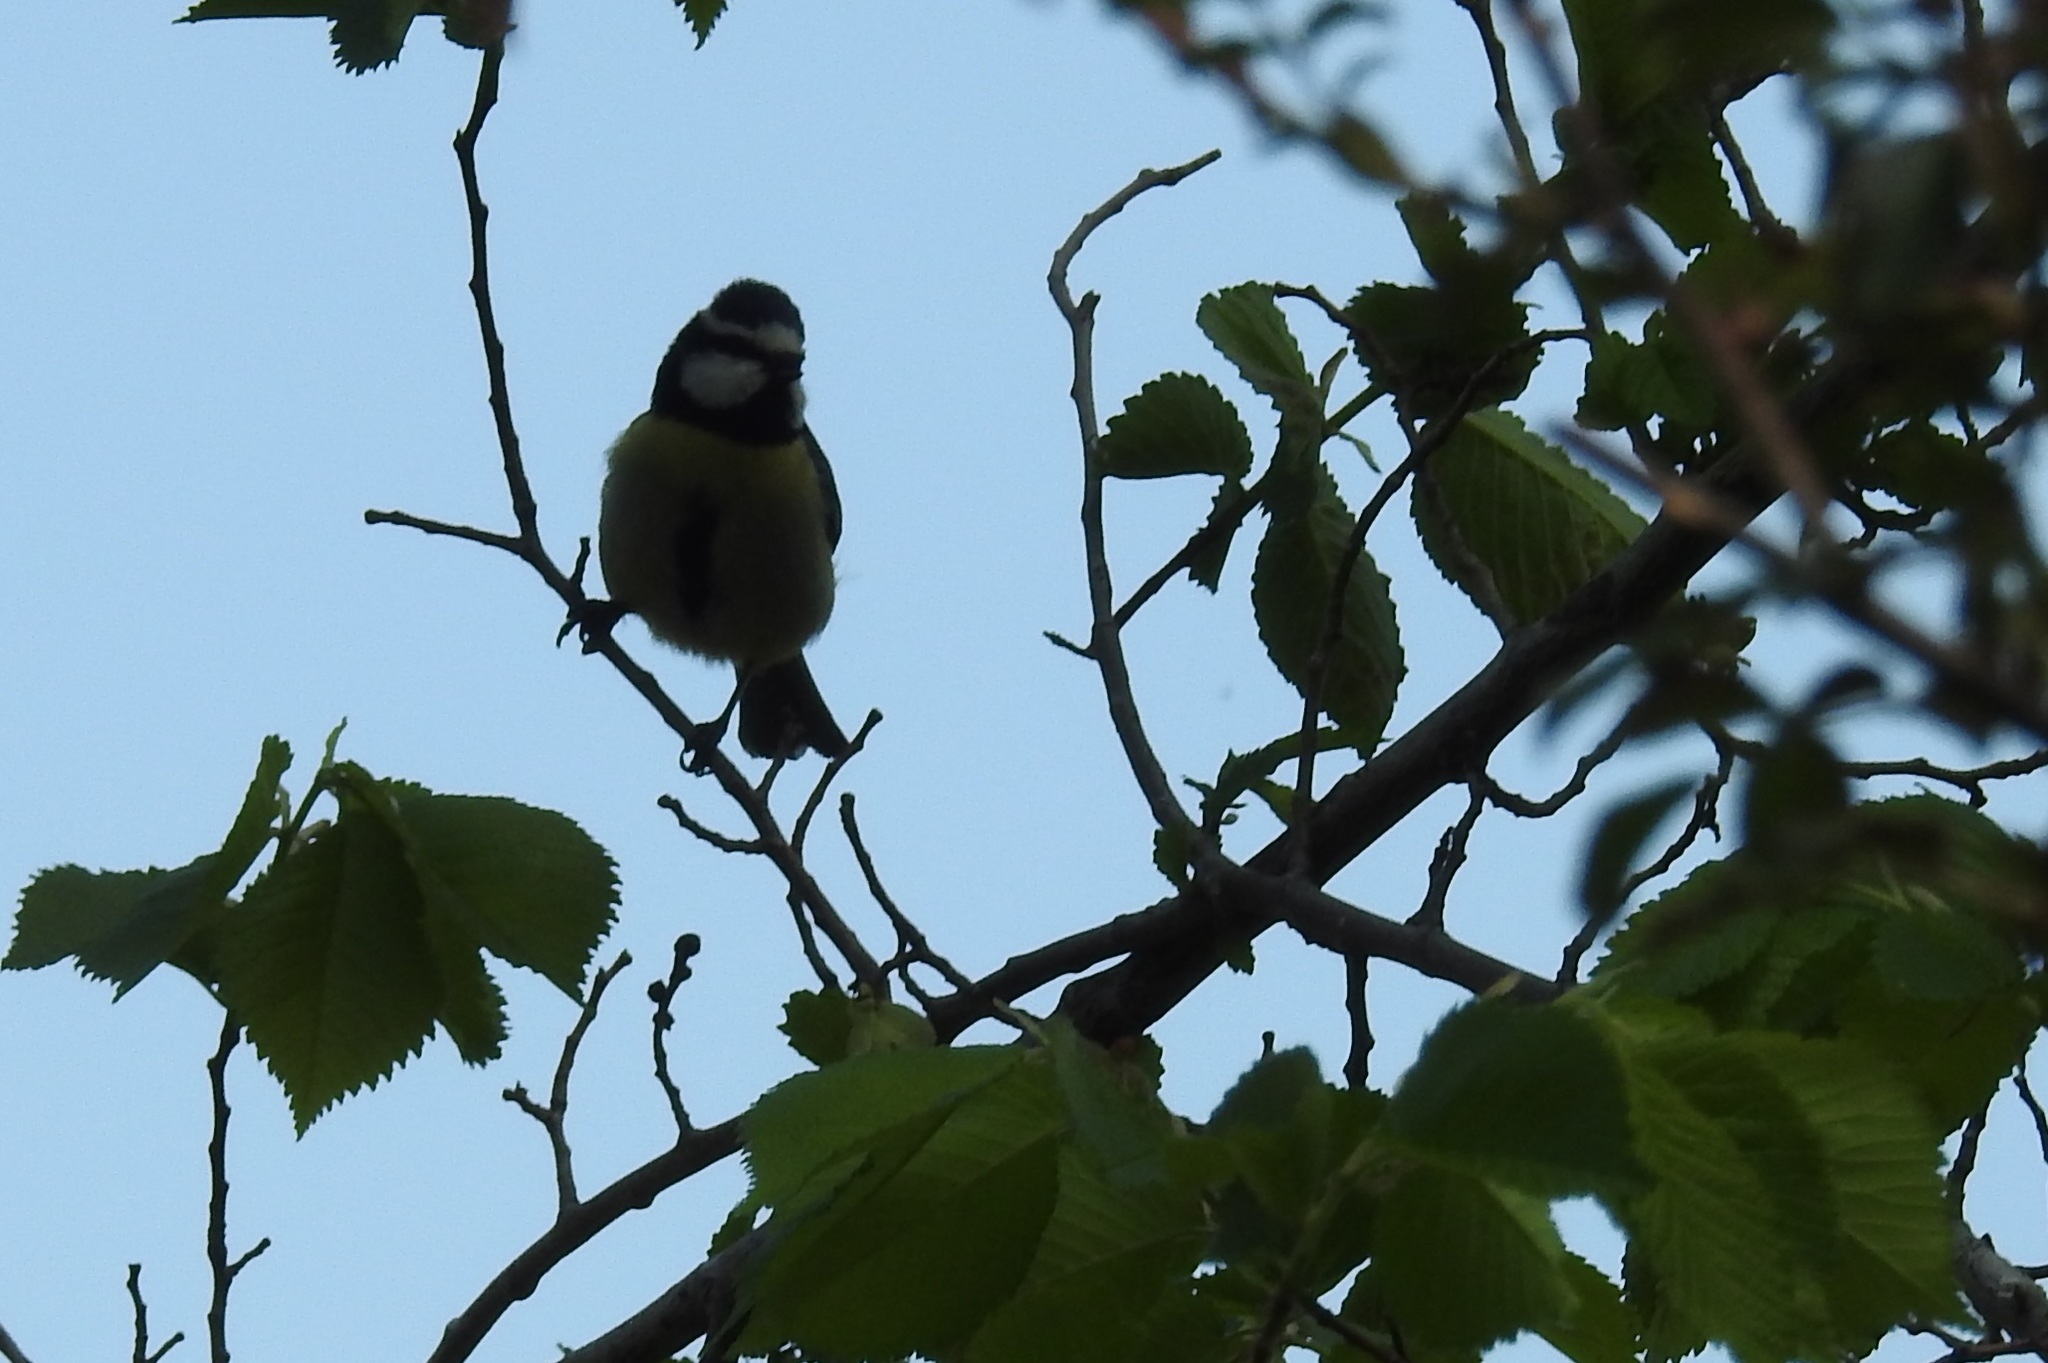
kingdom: Animalia
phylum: Chordata
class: Aves
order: Passeriformes
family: Paridae
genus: Cyanistes
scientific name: Cyanistes teneriffae
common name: African blue tit
